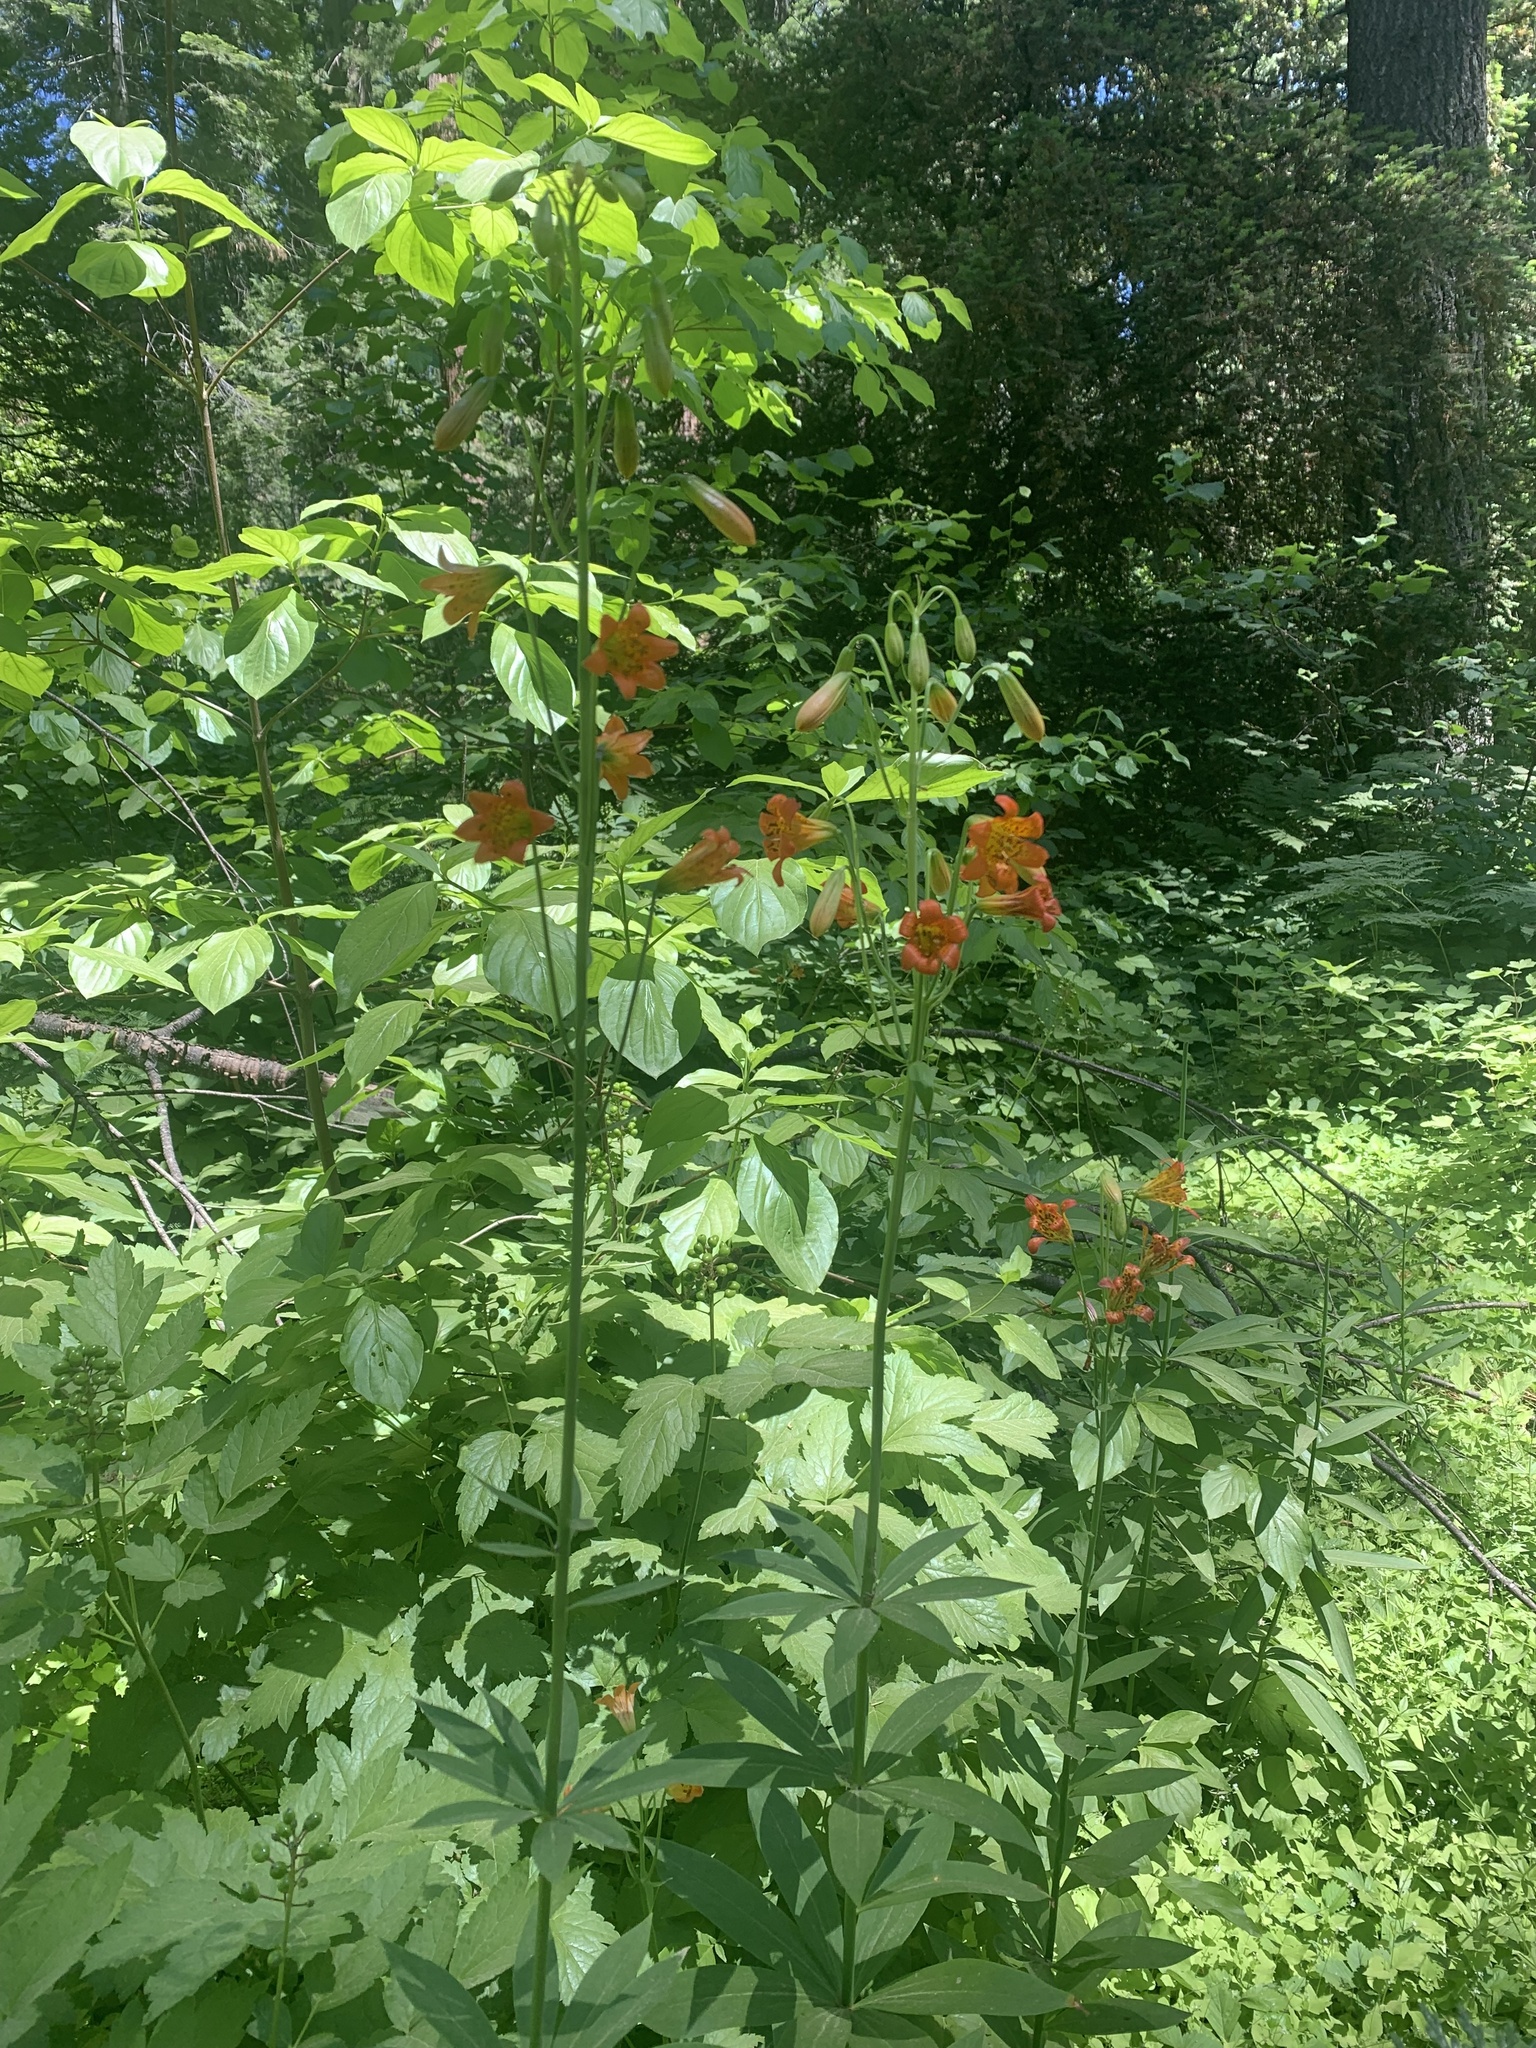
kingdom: Plantae
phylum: Tracheophyta
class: Liliopsida
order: Liliales
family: Liliaceae
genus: Lilium
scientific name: Lilium parvum
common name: Alpine lily
